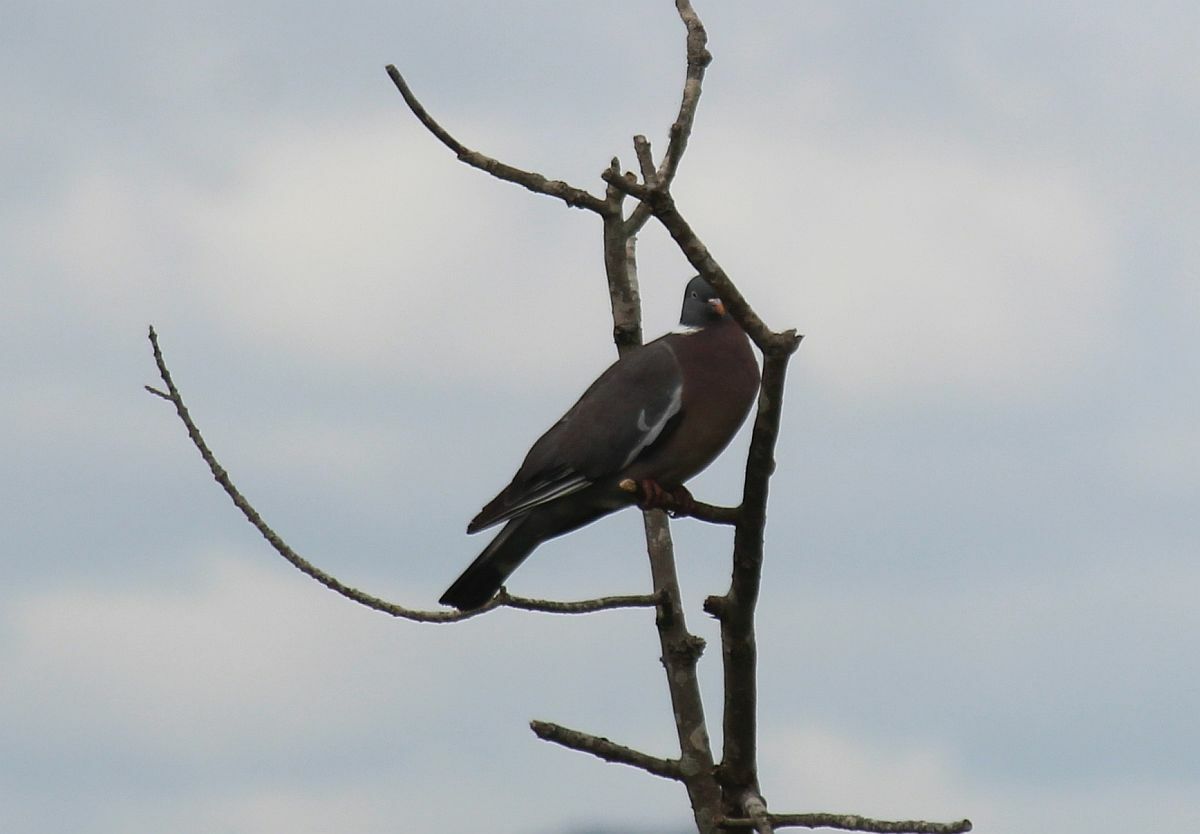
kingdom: Animalia
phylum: Chordata
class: Aves
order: Columbiformes
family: Columbidae
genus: Columba
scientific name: Columba palumbus
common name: Common wood pigeon
